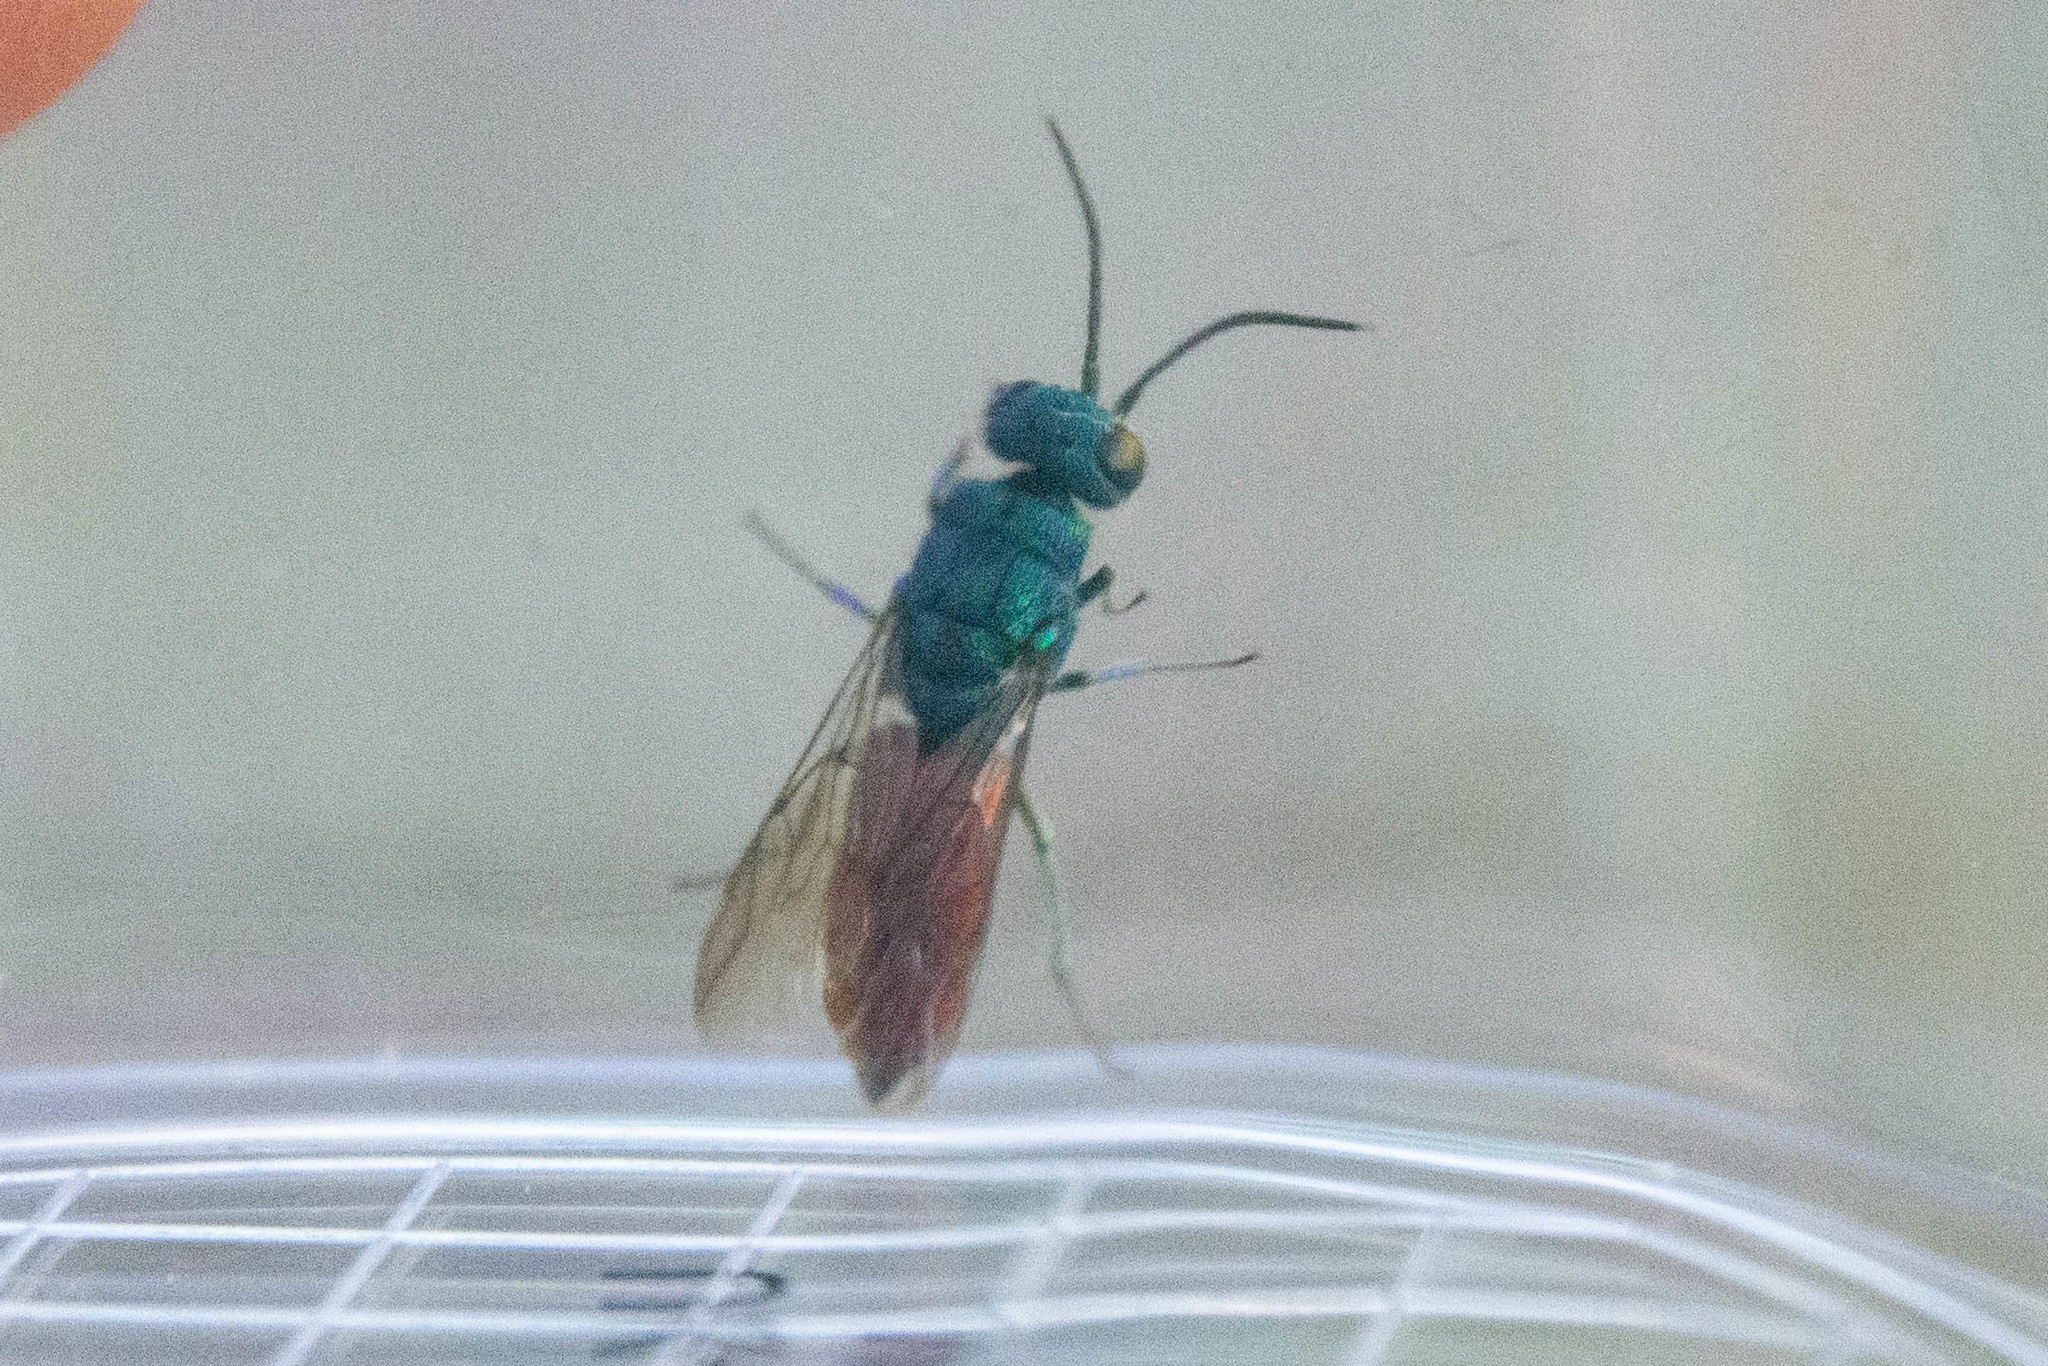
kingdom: Animalia
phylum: Arthropoda
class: Insecta
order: Hymenoptera
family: Chrysididae
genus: Chrysis
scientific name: Chrysis terminata
